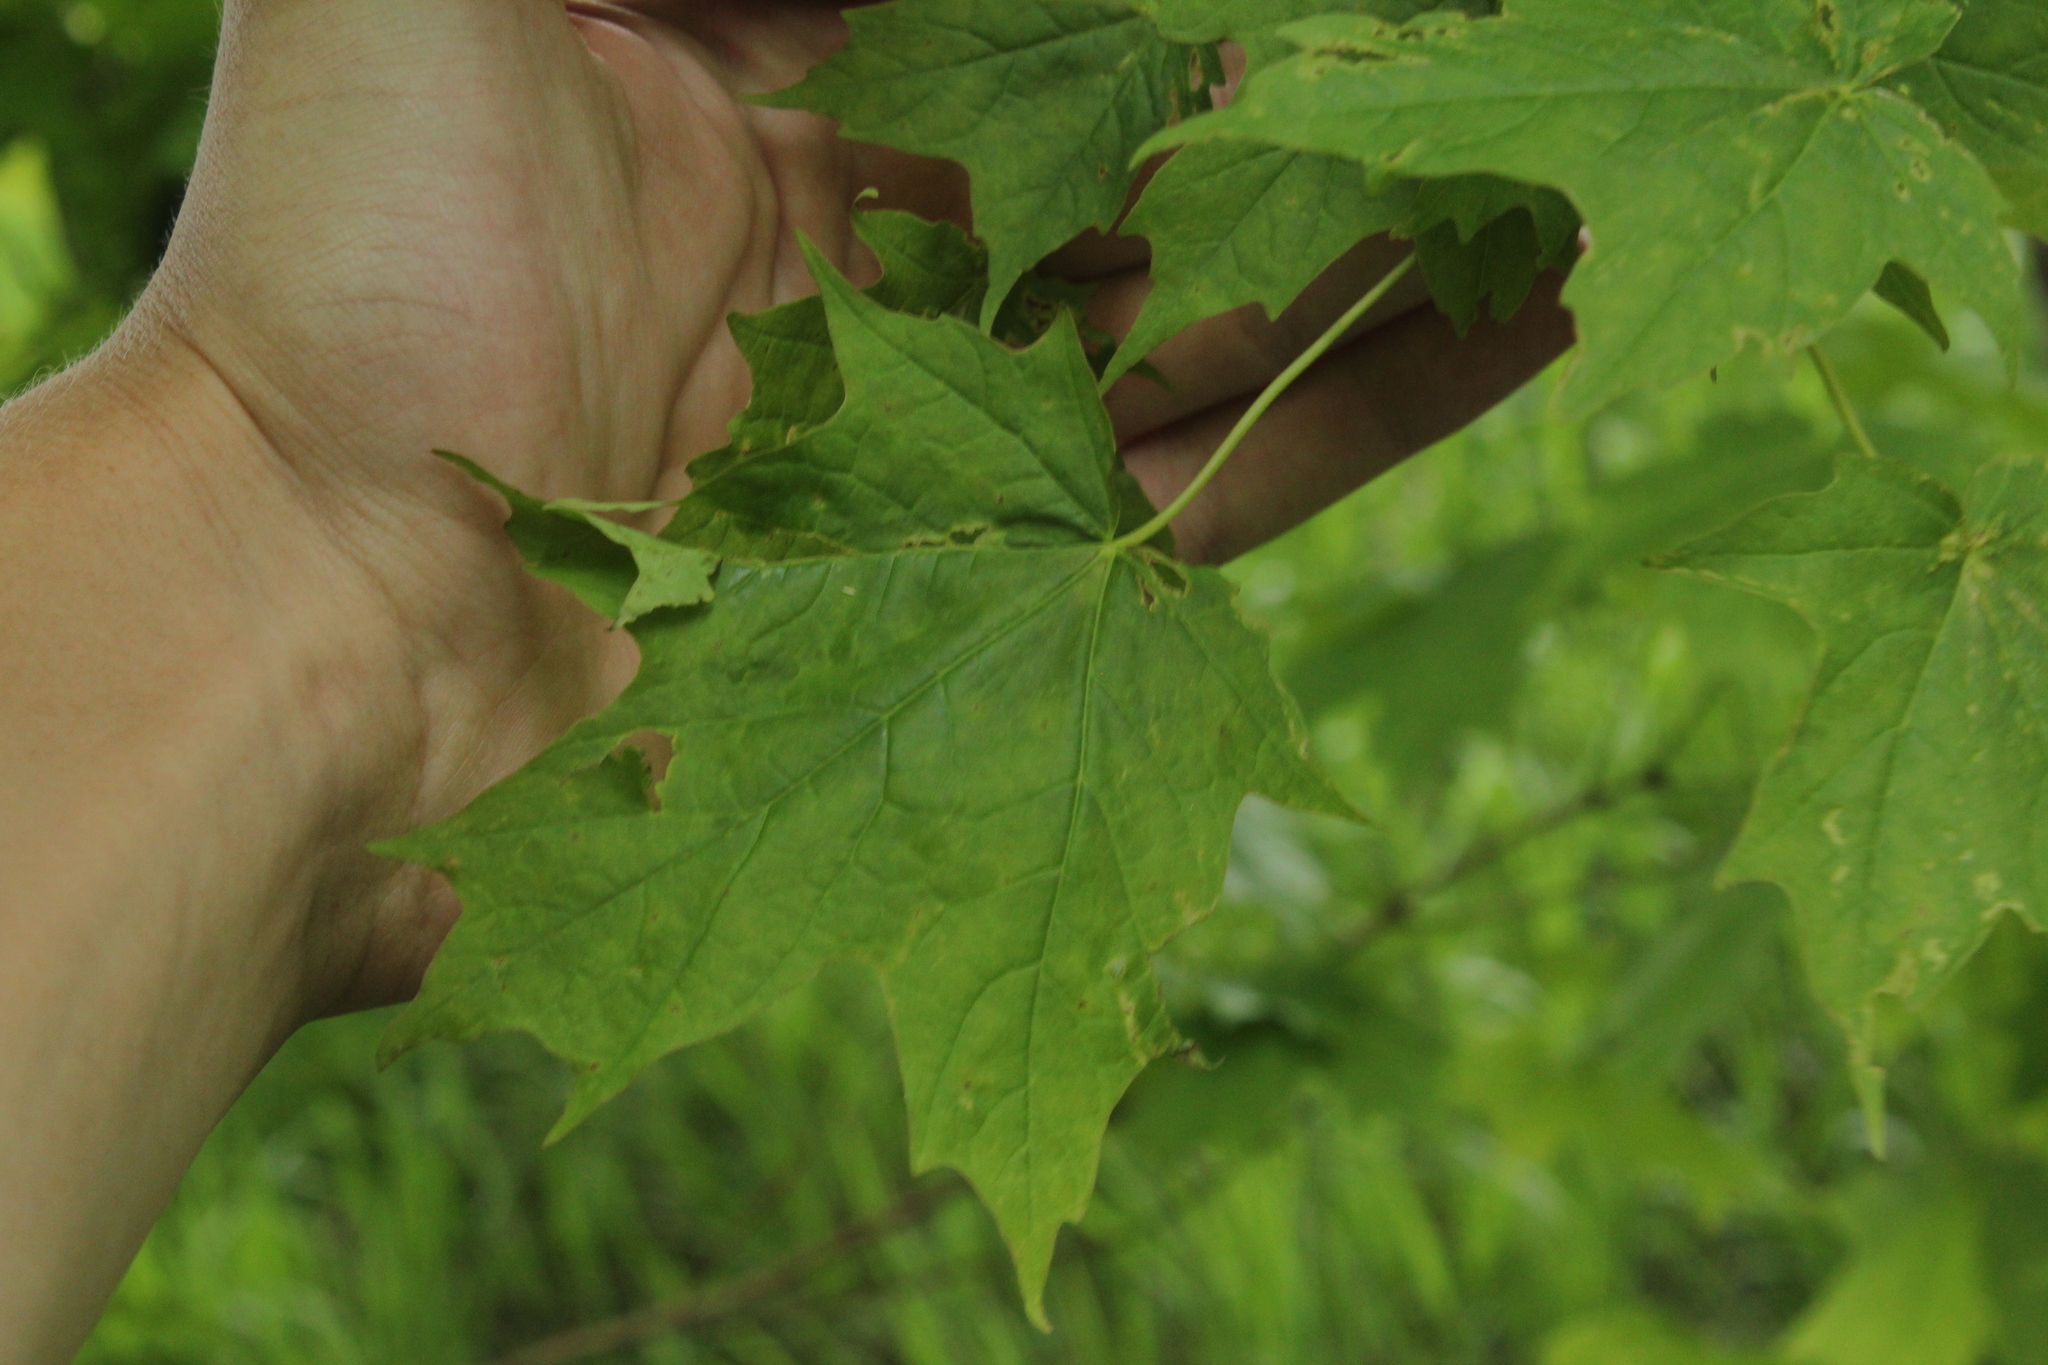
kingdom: Plantae
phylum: Tracheophyta
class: Magnoliopsida
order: Sapindales
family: Sapindaceae
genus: Acer
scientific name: Acer saccharum
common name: Sugar maple
